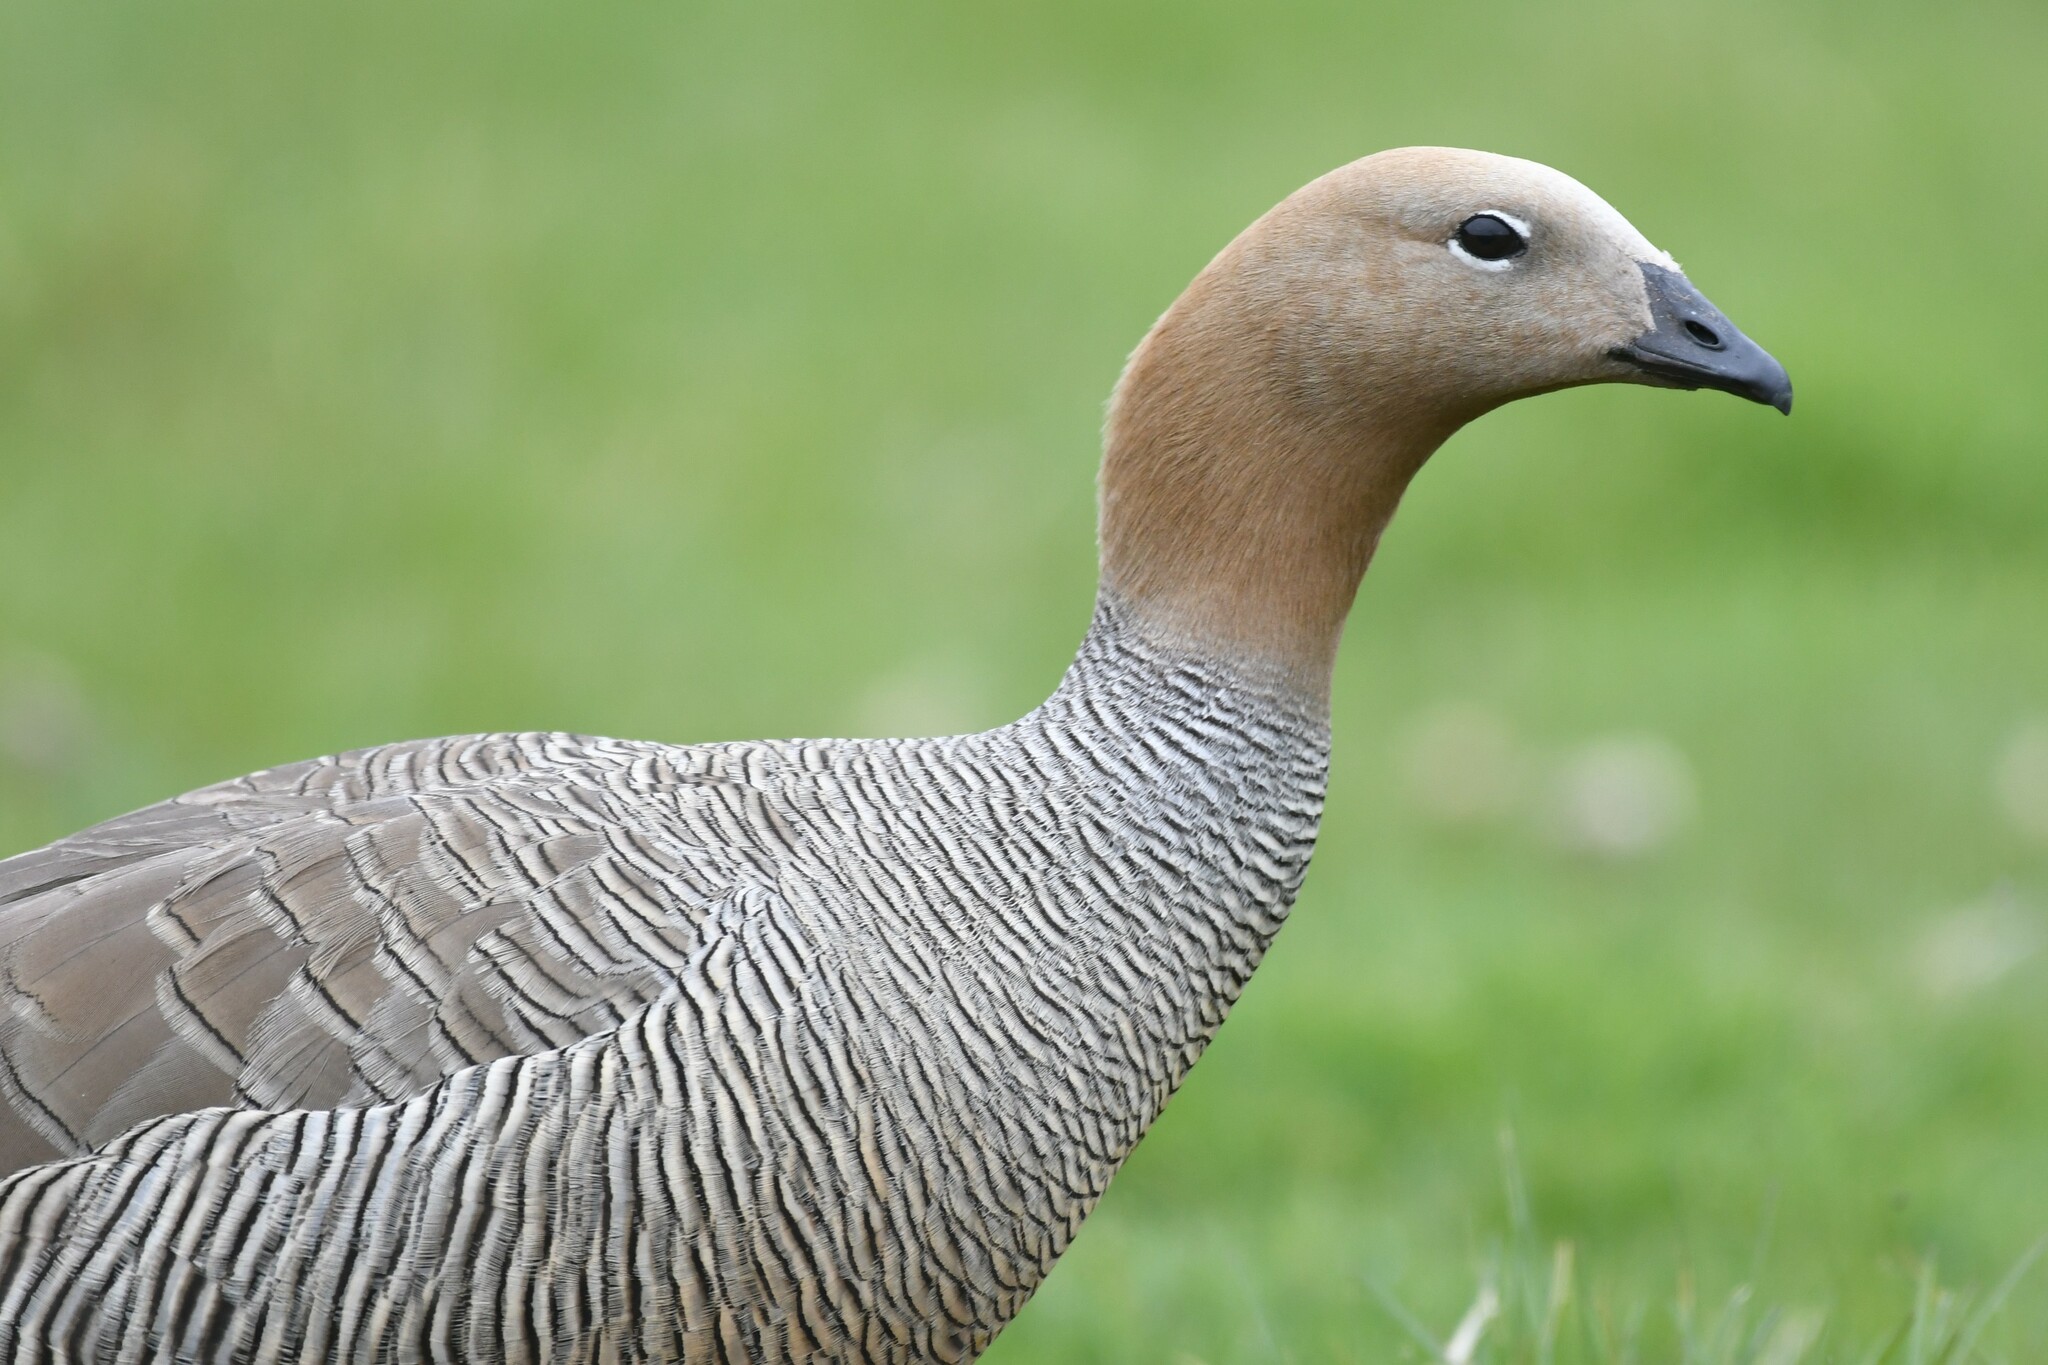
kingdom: Animalia
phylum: Chordata
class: Aves
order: Anseriformes
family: Anatidae
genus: Chloephaga
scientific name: Chloephaga rubidiceps
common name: Ruddy-headed goose
